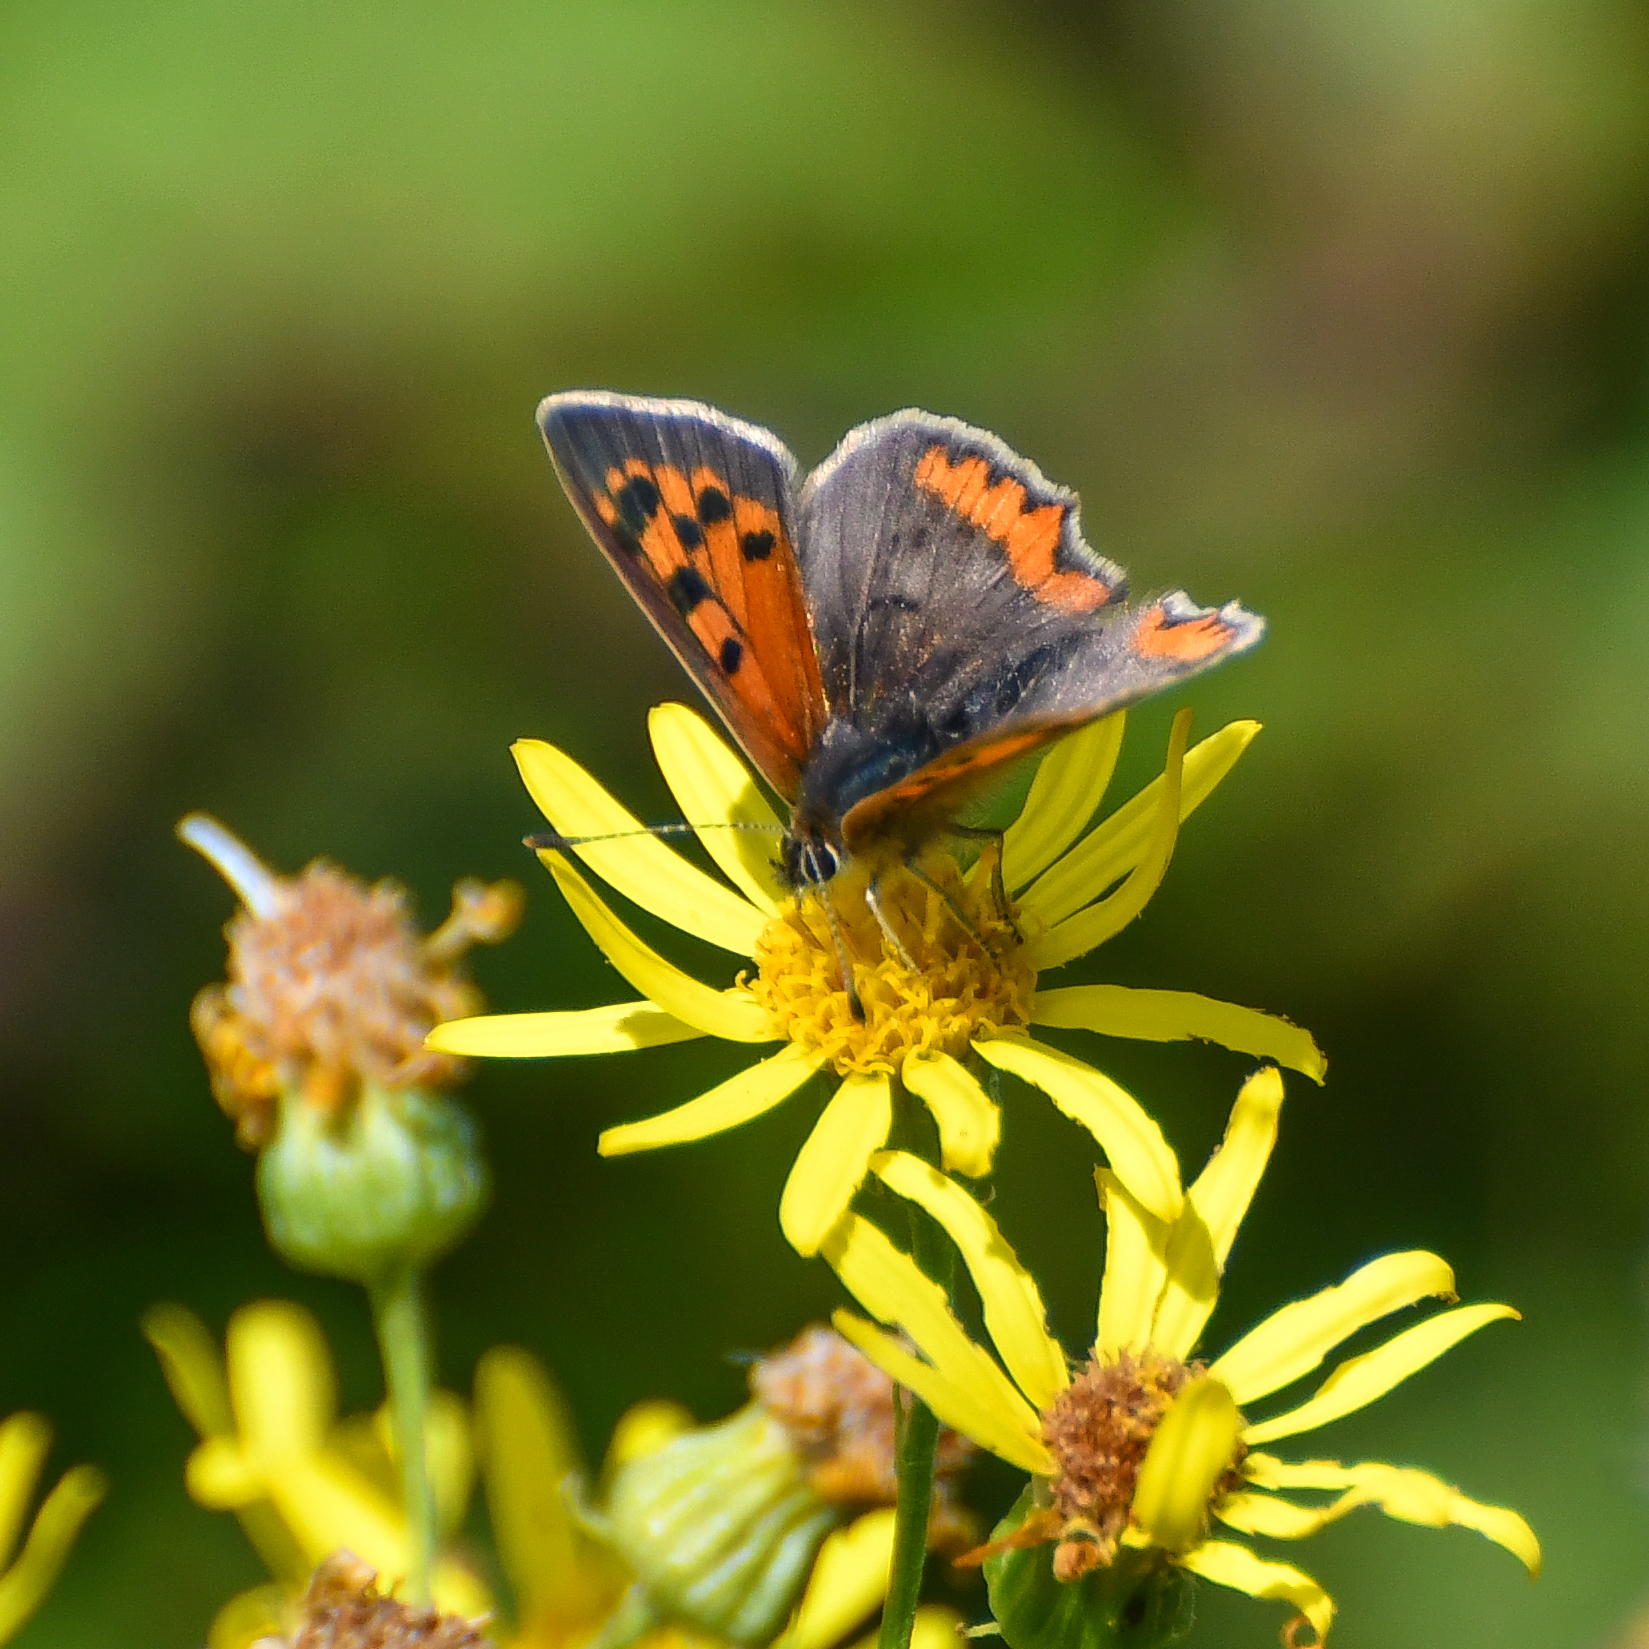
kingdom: Animalia
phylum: Arthropoda
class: Insecta
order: Lepidoptera
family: Lycaenidae
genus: Lycaena
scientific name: Lycaena phlaeas
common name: Small copper
